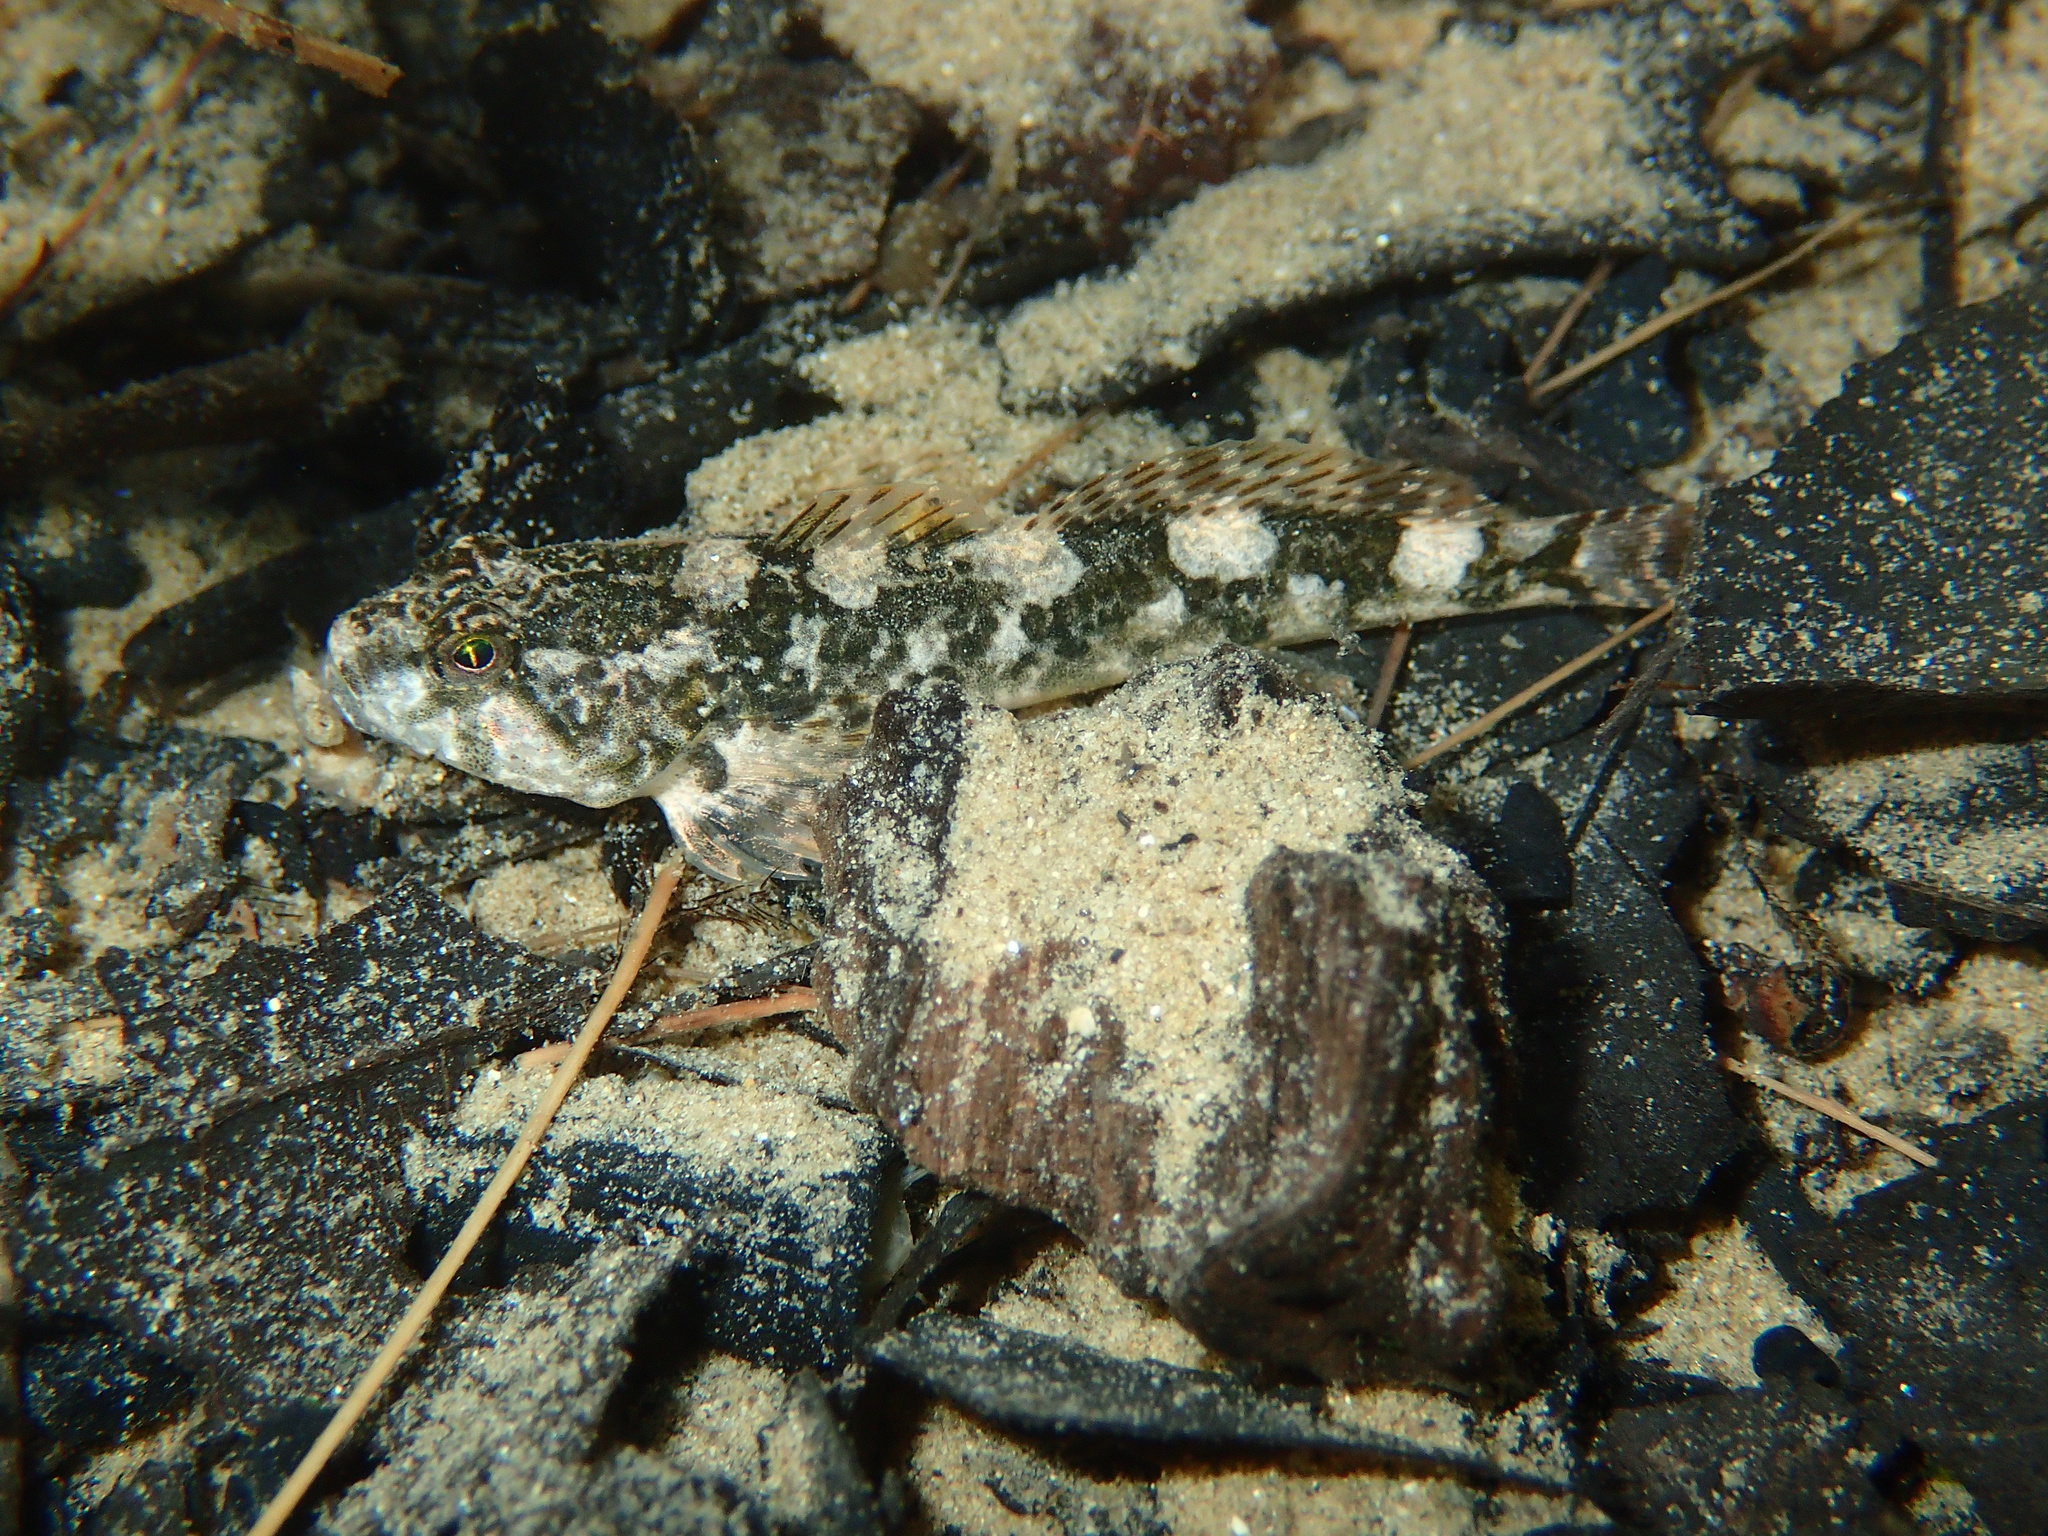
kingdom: Animalia
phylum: Chordata
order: Scorpaeniformes
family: Cottidae
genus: Cottus
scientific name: Cottus rondeleti
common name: Hérault sculpin
